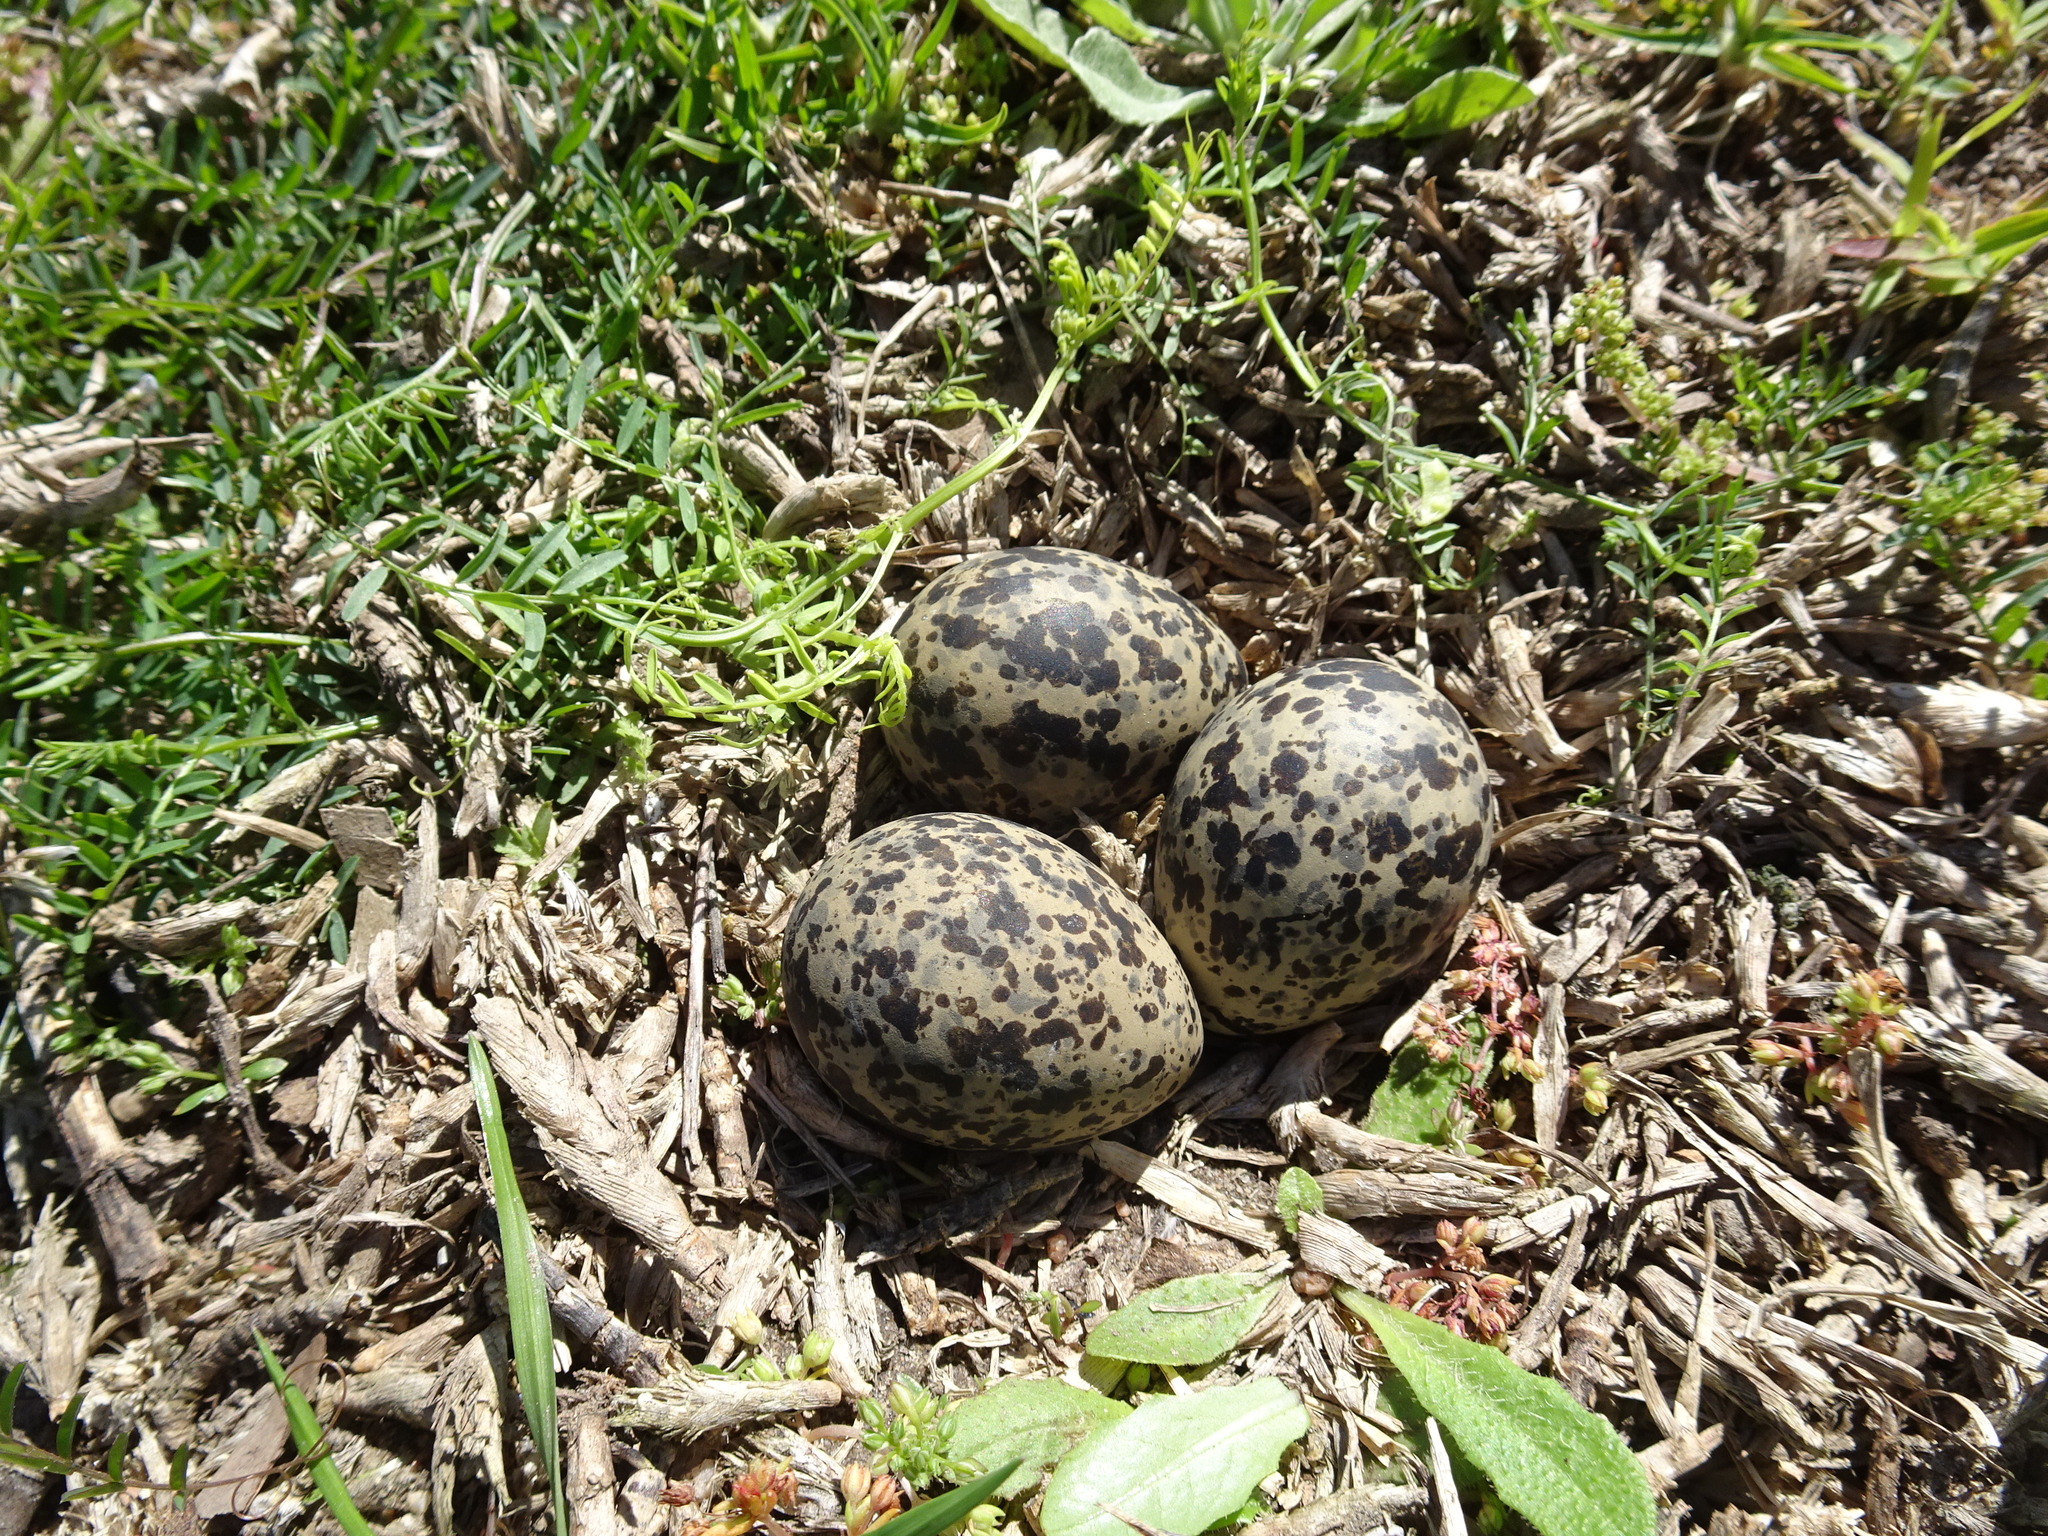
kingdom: Animalia
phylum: Chordata
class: Aves
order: Charadriiformes
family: Charadriidae
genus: Vanellus
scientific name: Vanellus coronatus
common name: Crowned lapwing
